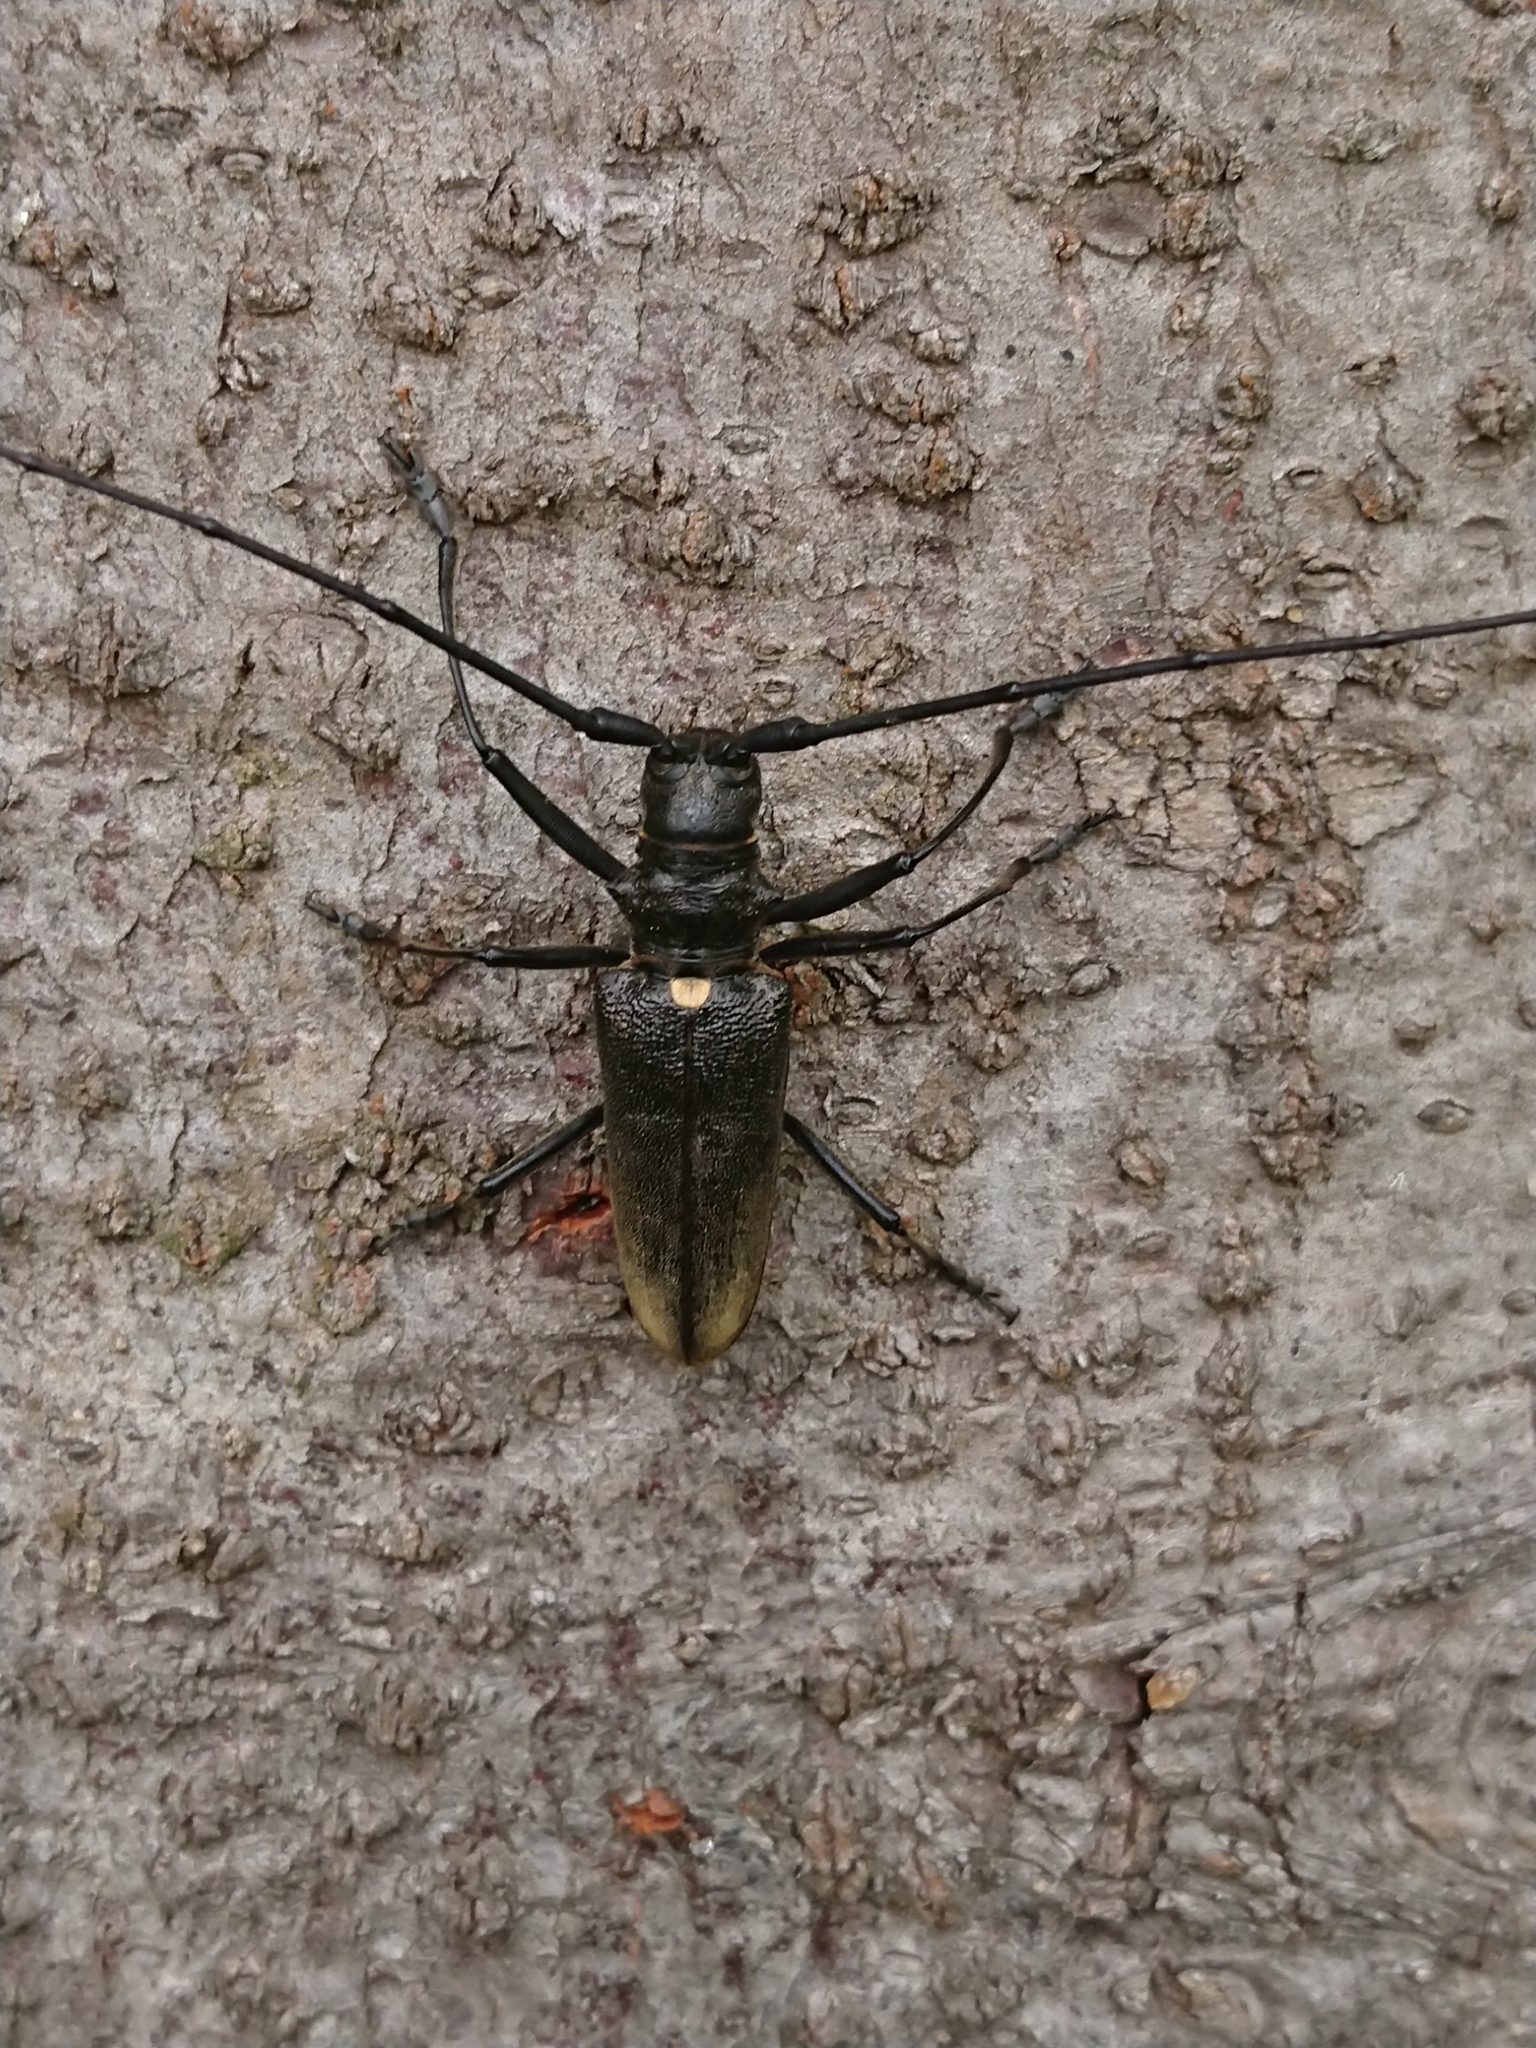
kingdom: Animalia
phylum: Arthropoda
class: Insecta
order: Coleoptera
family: Cerambycidae
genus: Monochamus
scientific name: Monochamus sartor
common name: Pine sawyer
